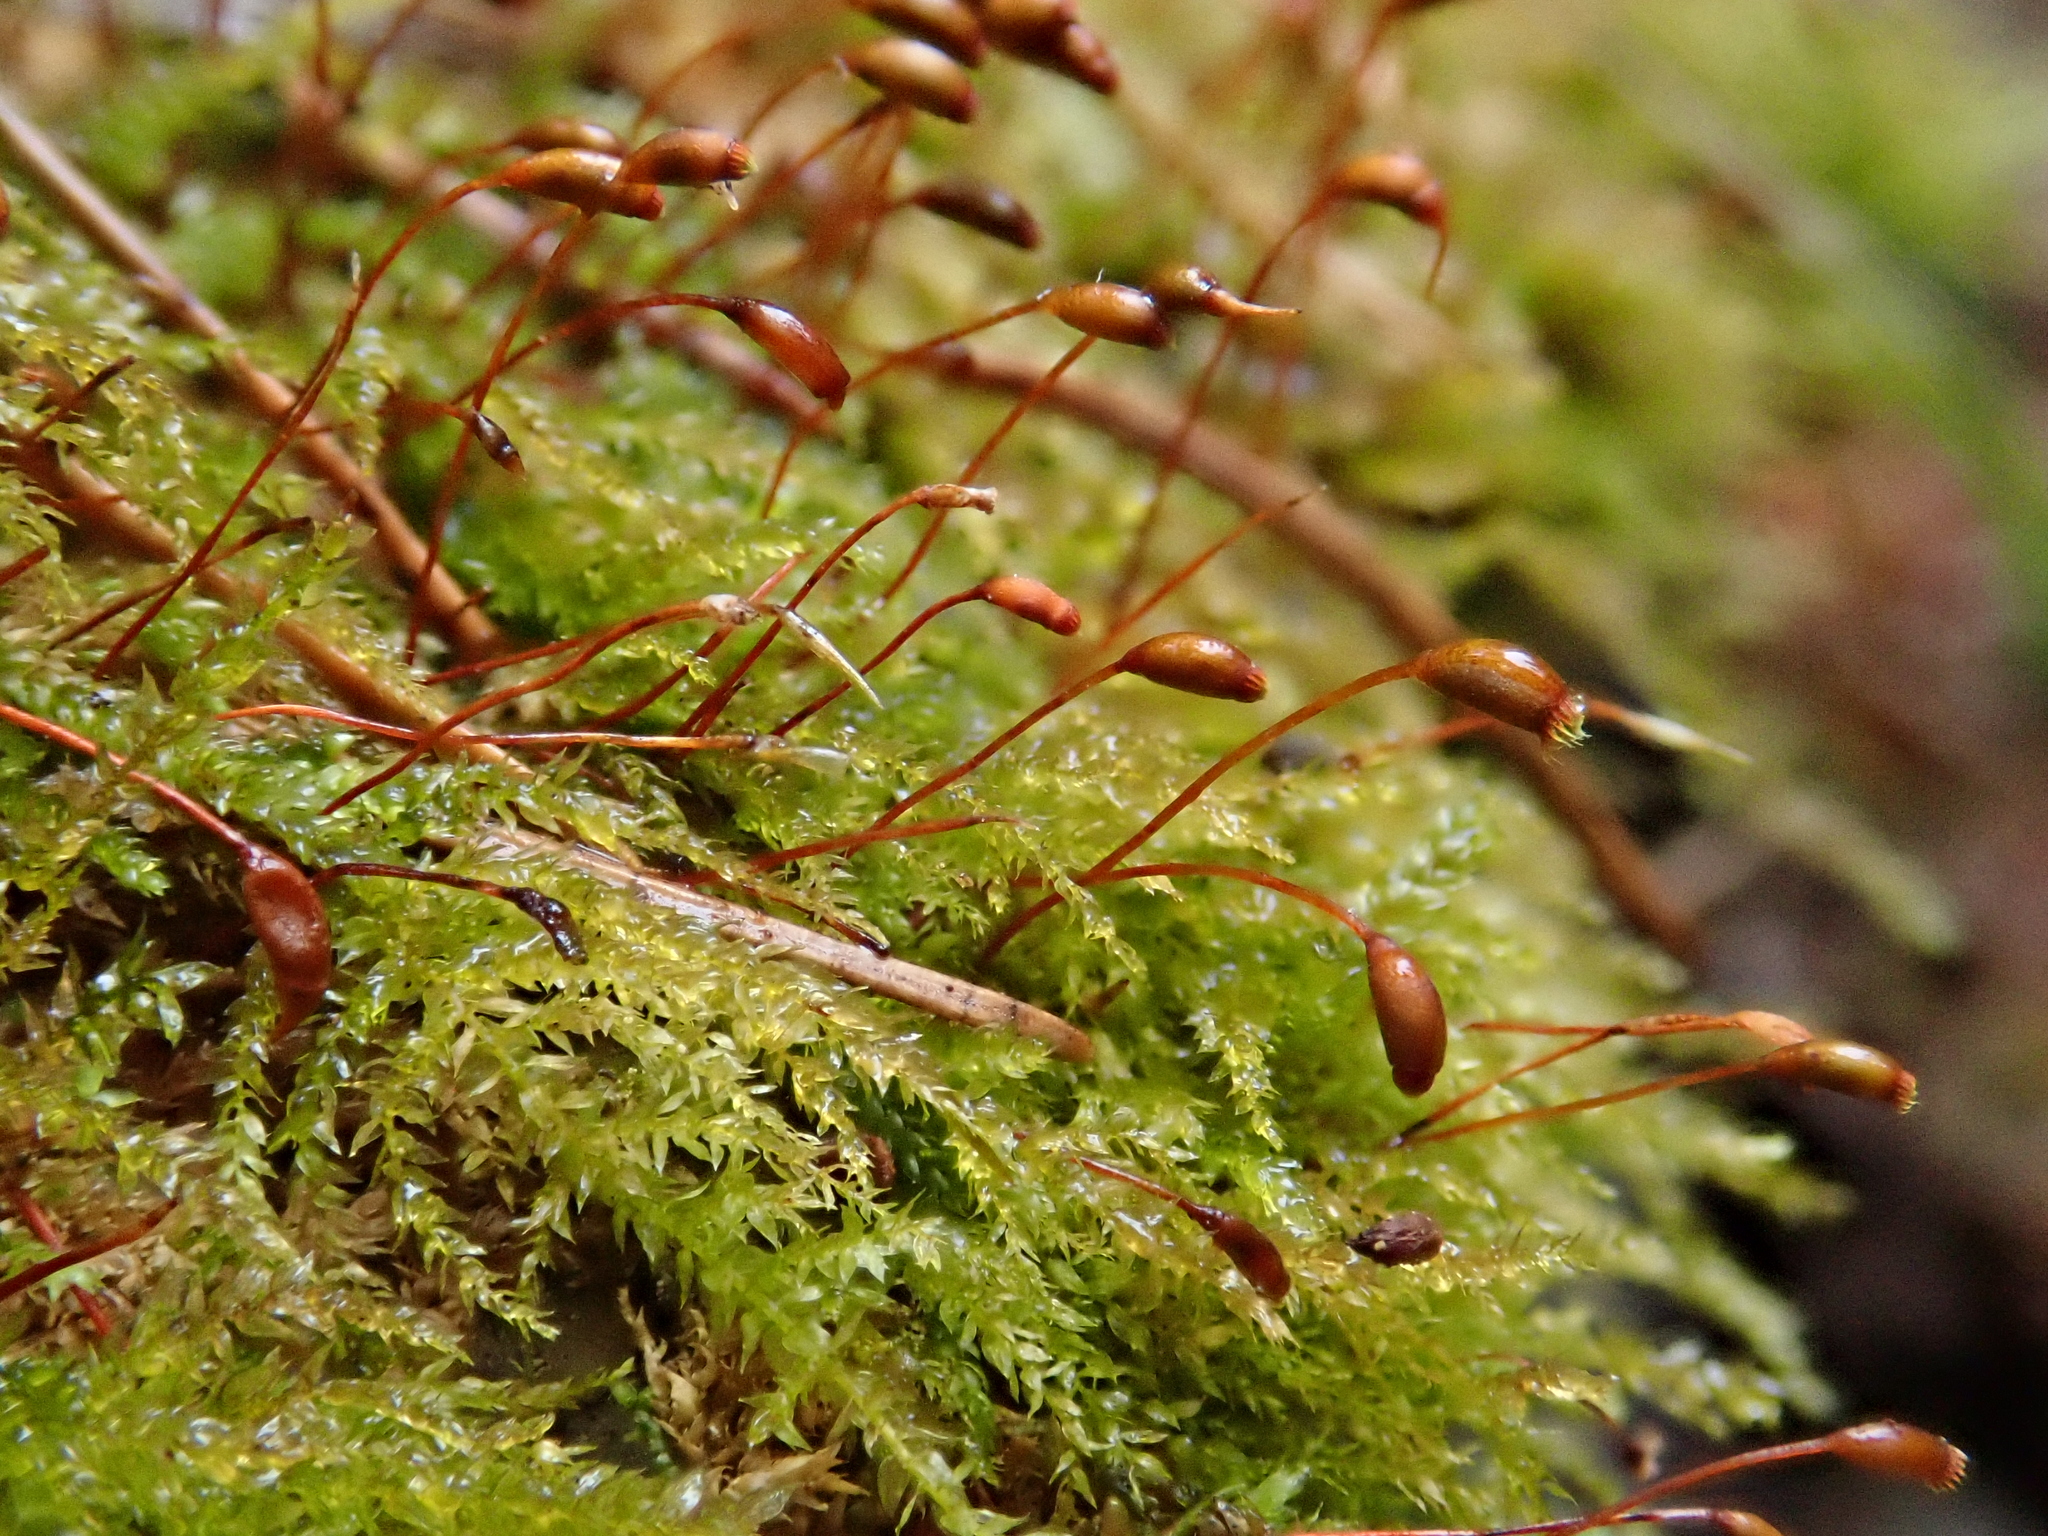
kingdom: Plantae
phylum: Bryophyta
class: Bryopsida
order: Hypnales
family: Brachytheciaceae
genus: Oxyrrhynchium
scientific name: Oxyrrhynchium hians
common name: Spreading beaked moss
